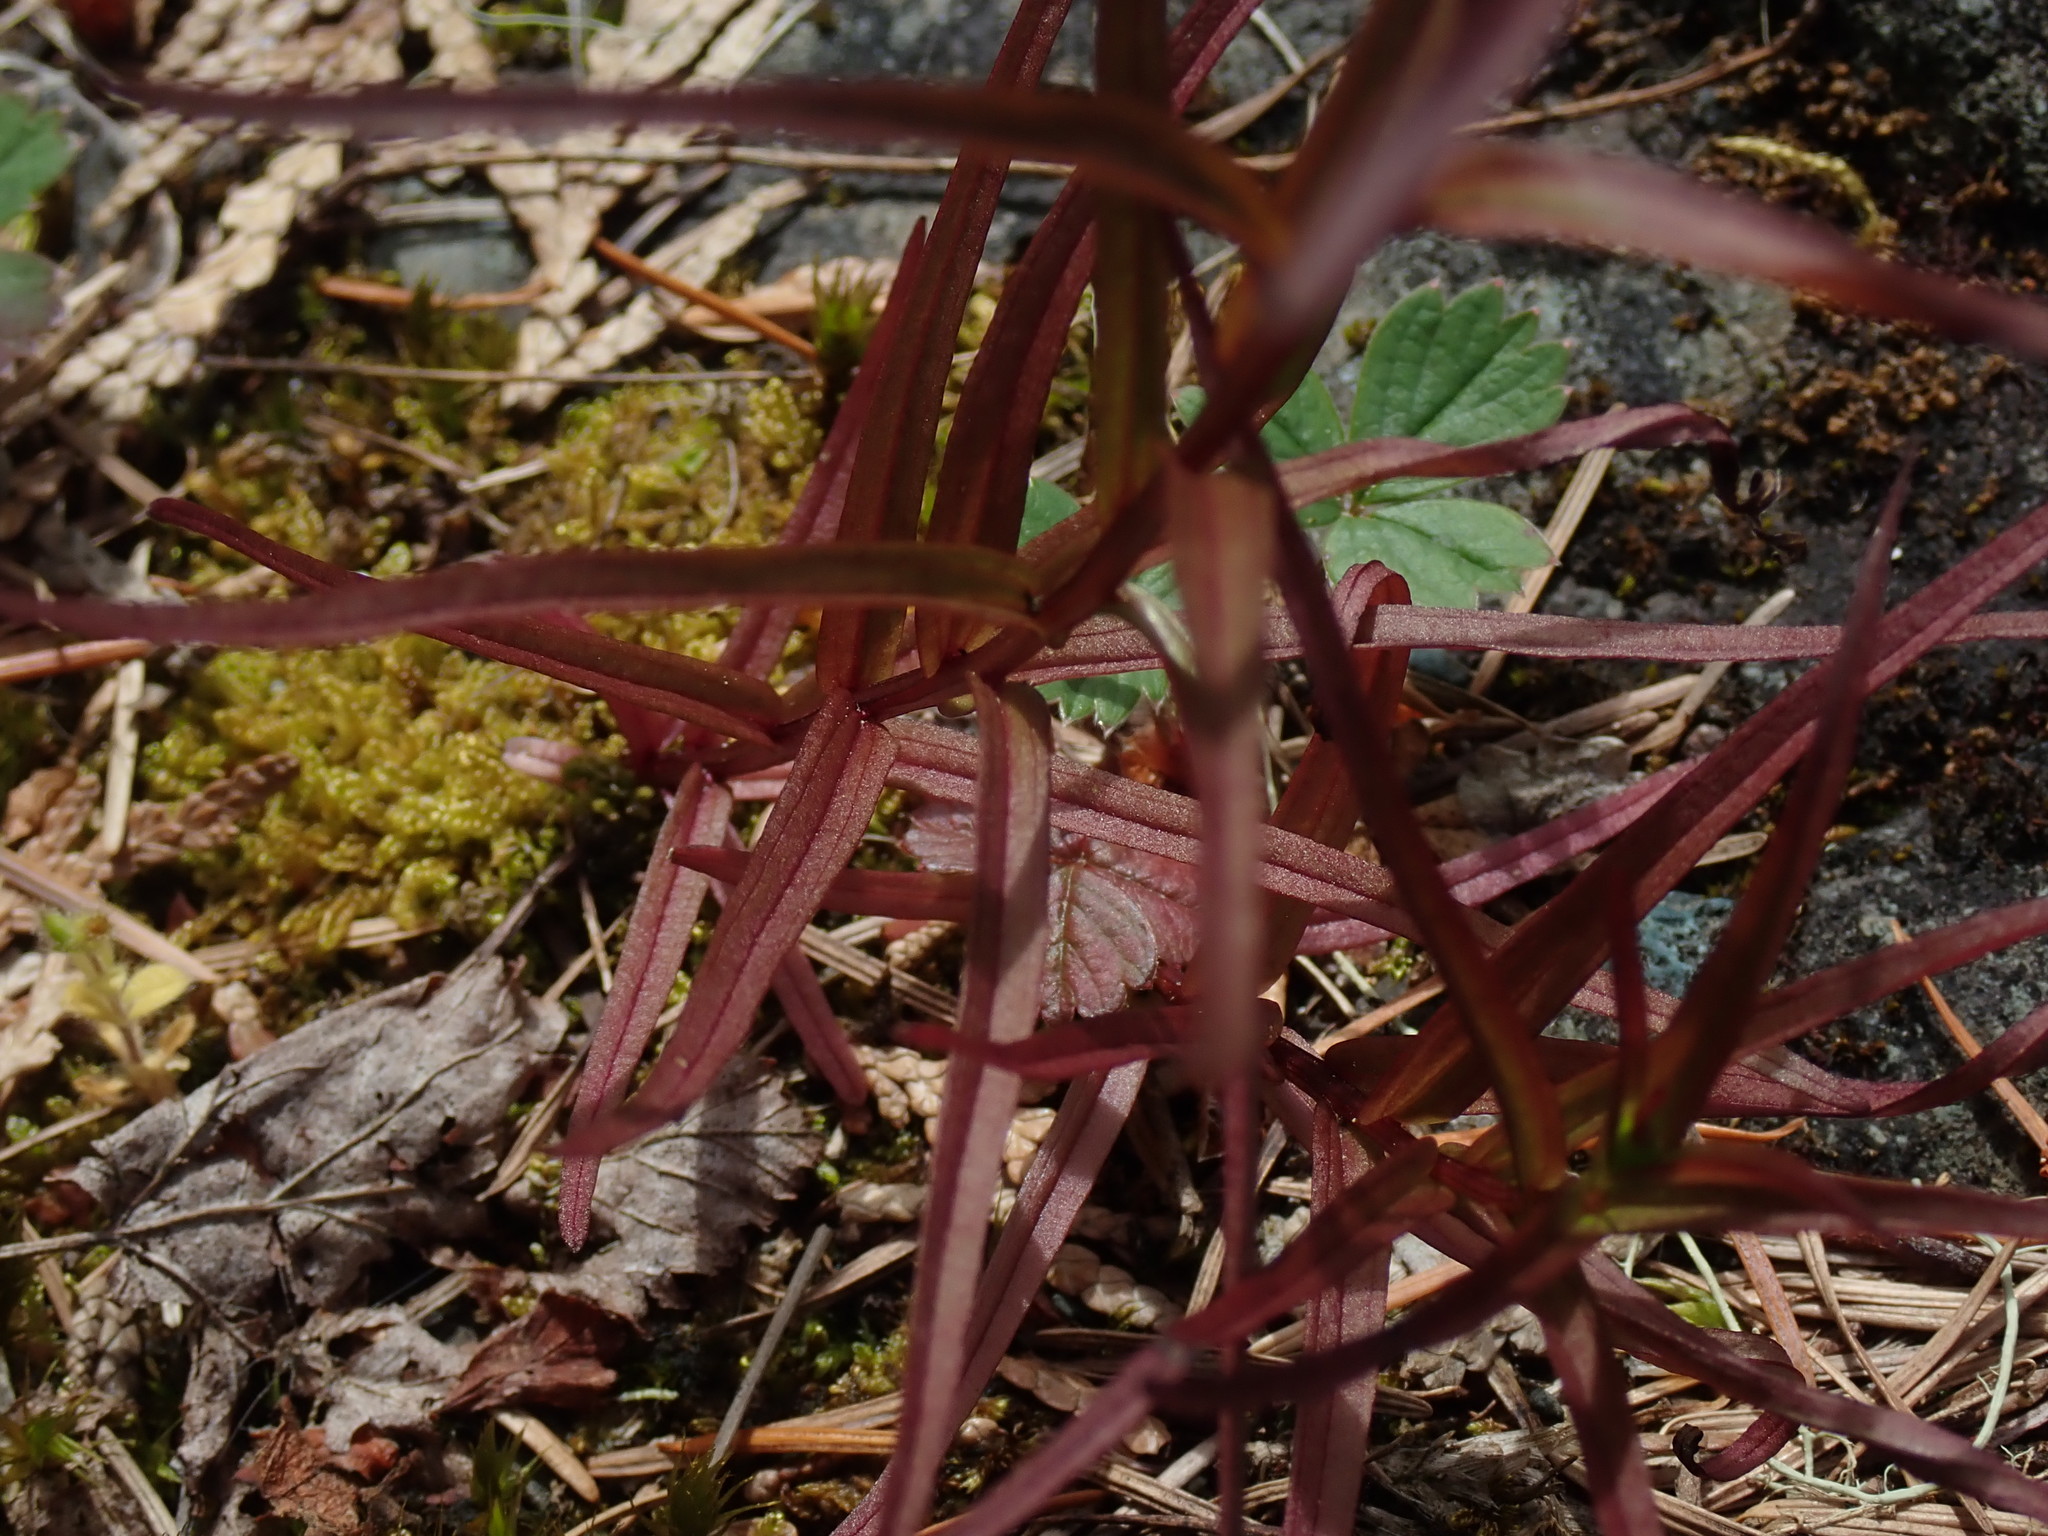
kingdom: Plantae
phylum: Tracheophyta
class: Magnoliopsida
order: Lamiales
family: Orobanchaceae
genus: Castilleja
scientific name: Castilleja miniata
